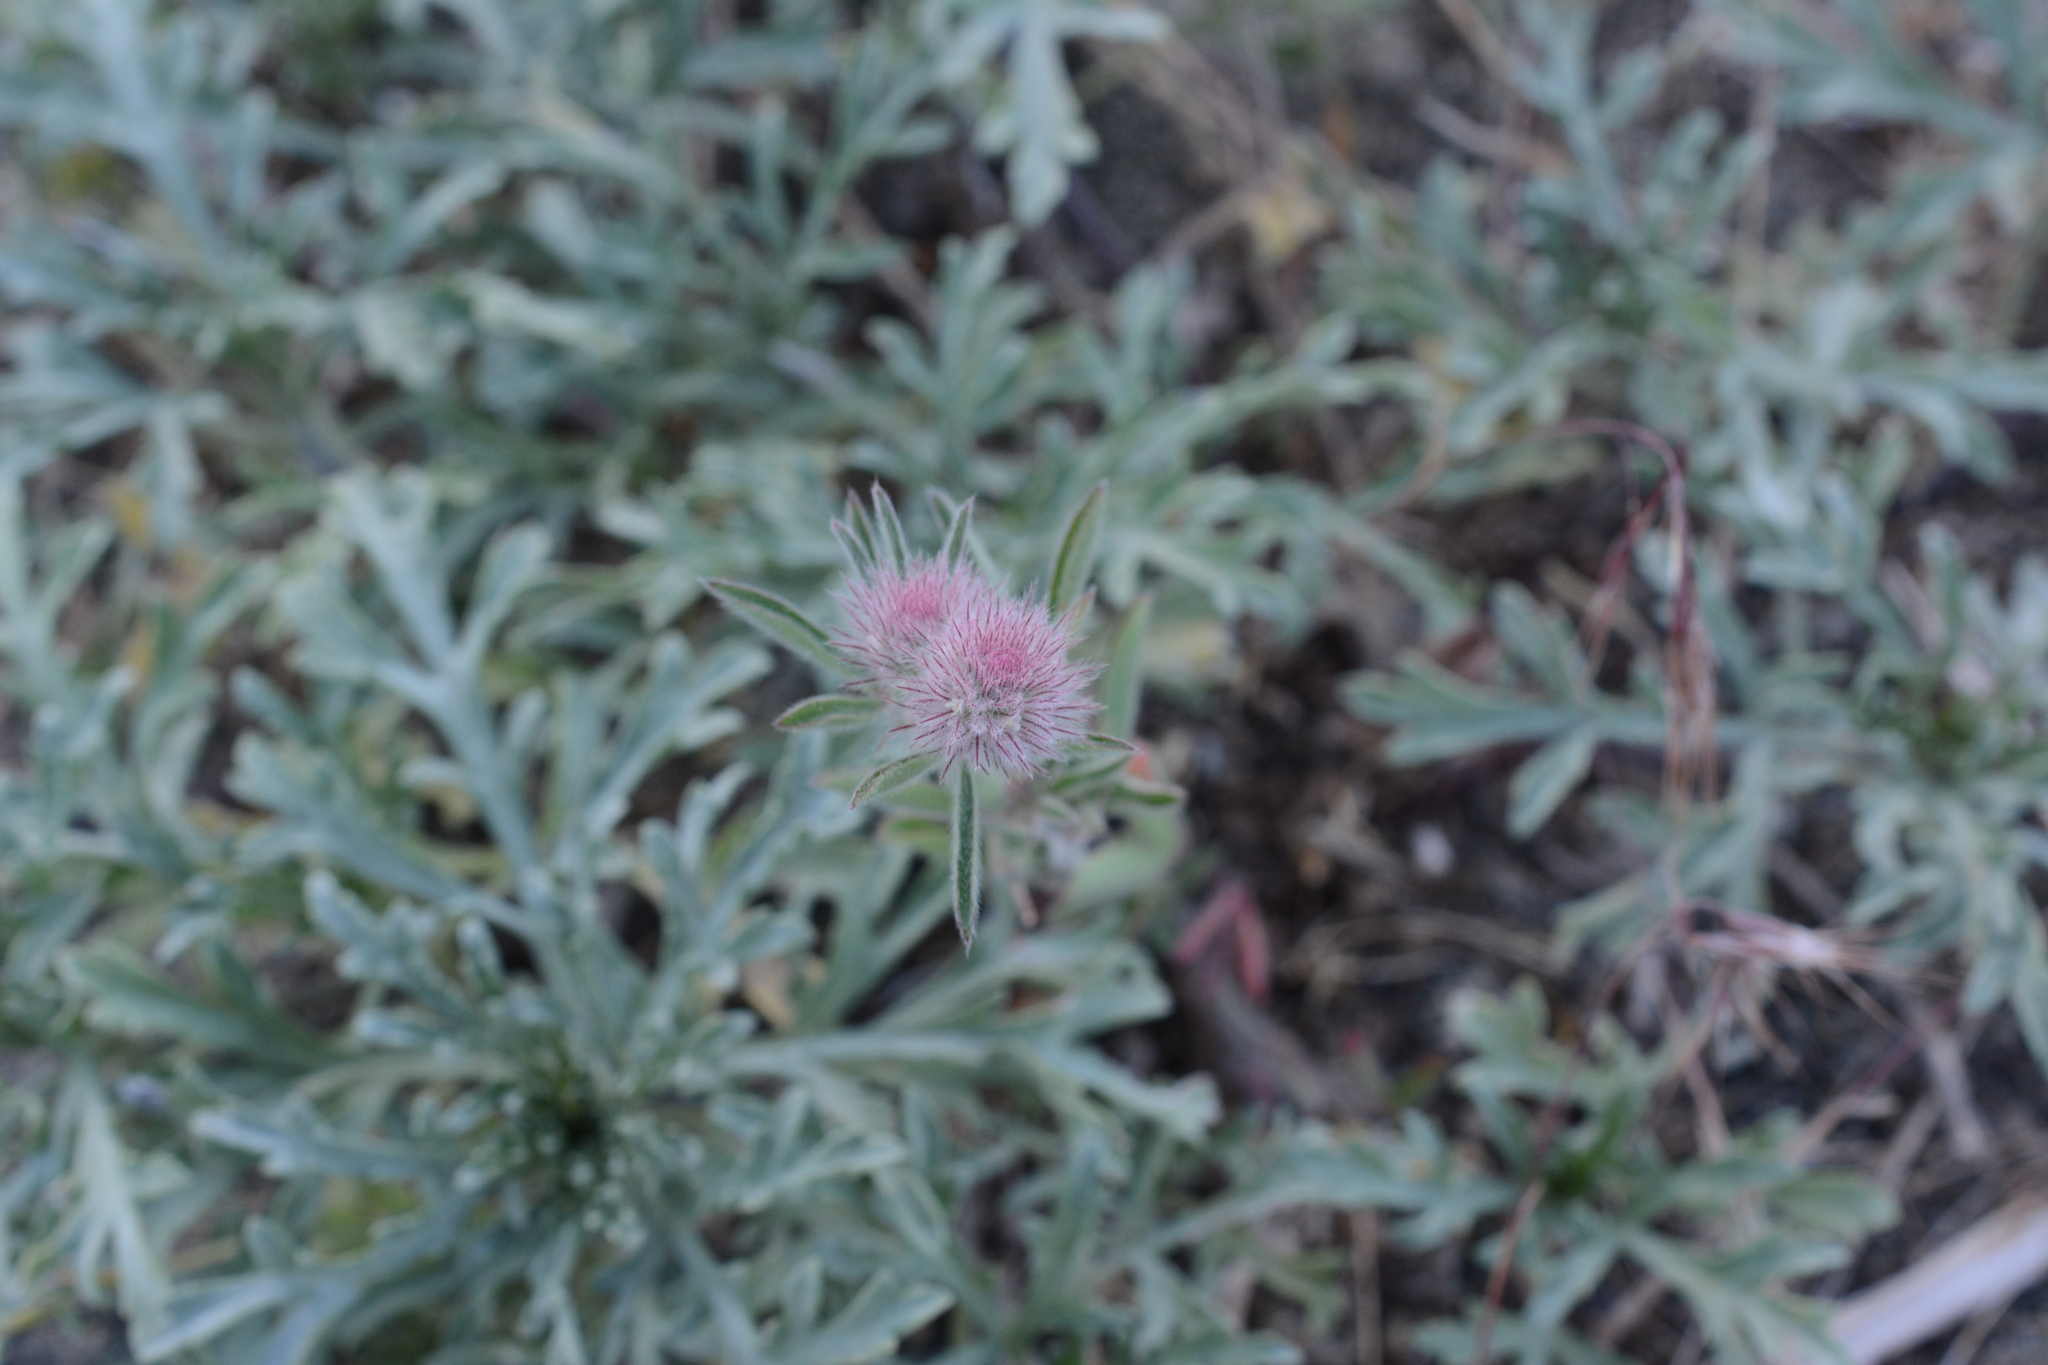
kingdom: Plantae
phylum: Tracheophyta
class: Magnoliopsida
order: Fabales
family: Fabaceae
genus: Trifolium
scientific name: Trifolium arvense
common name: Hare's-foot clover
